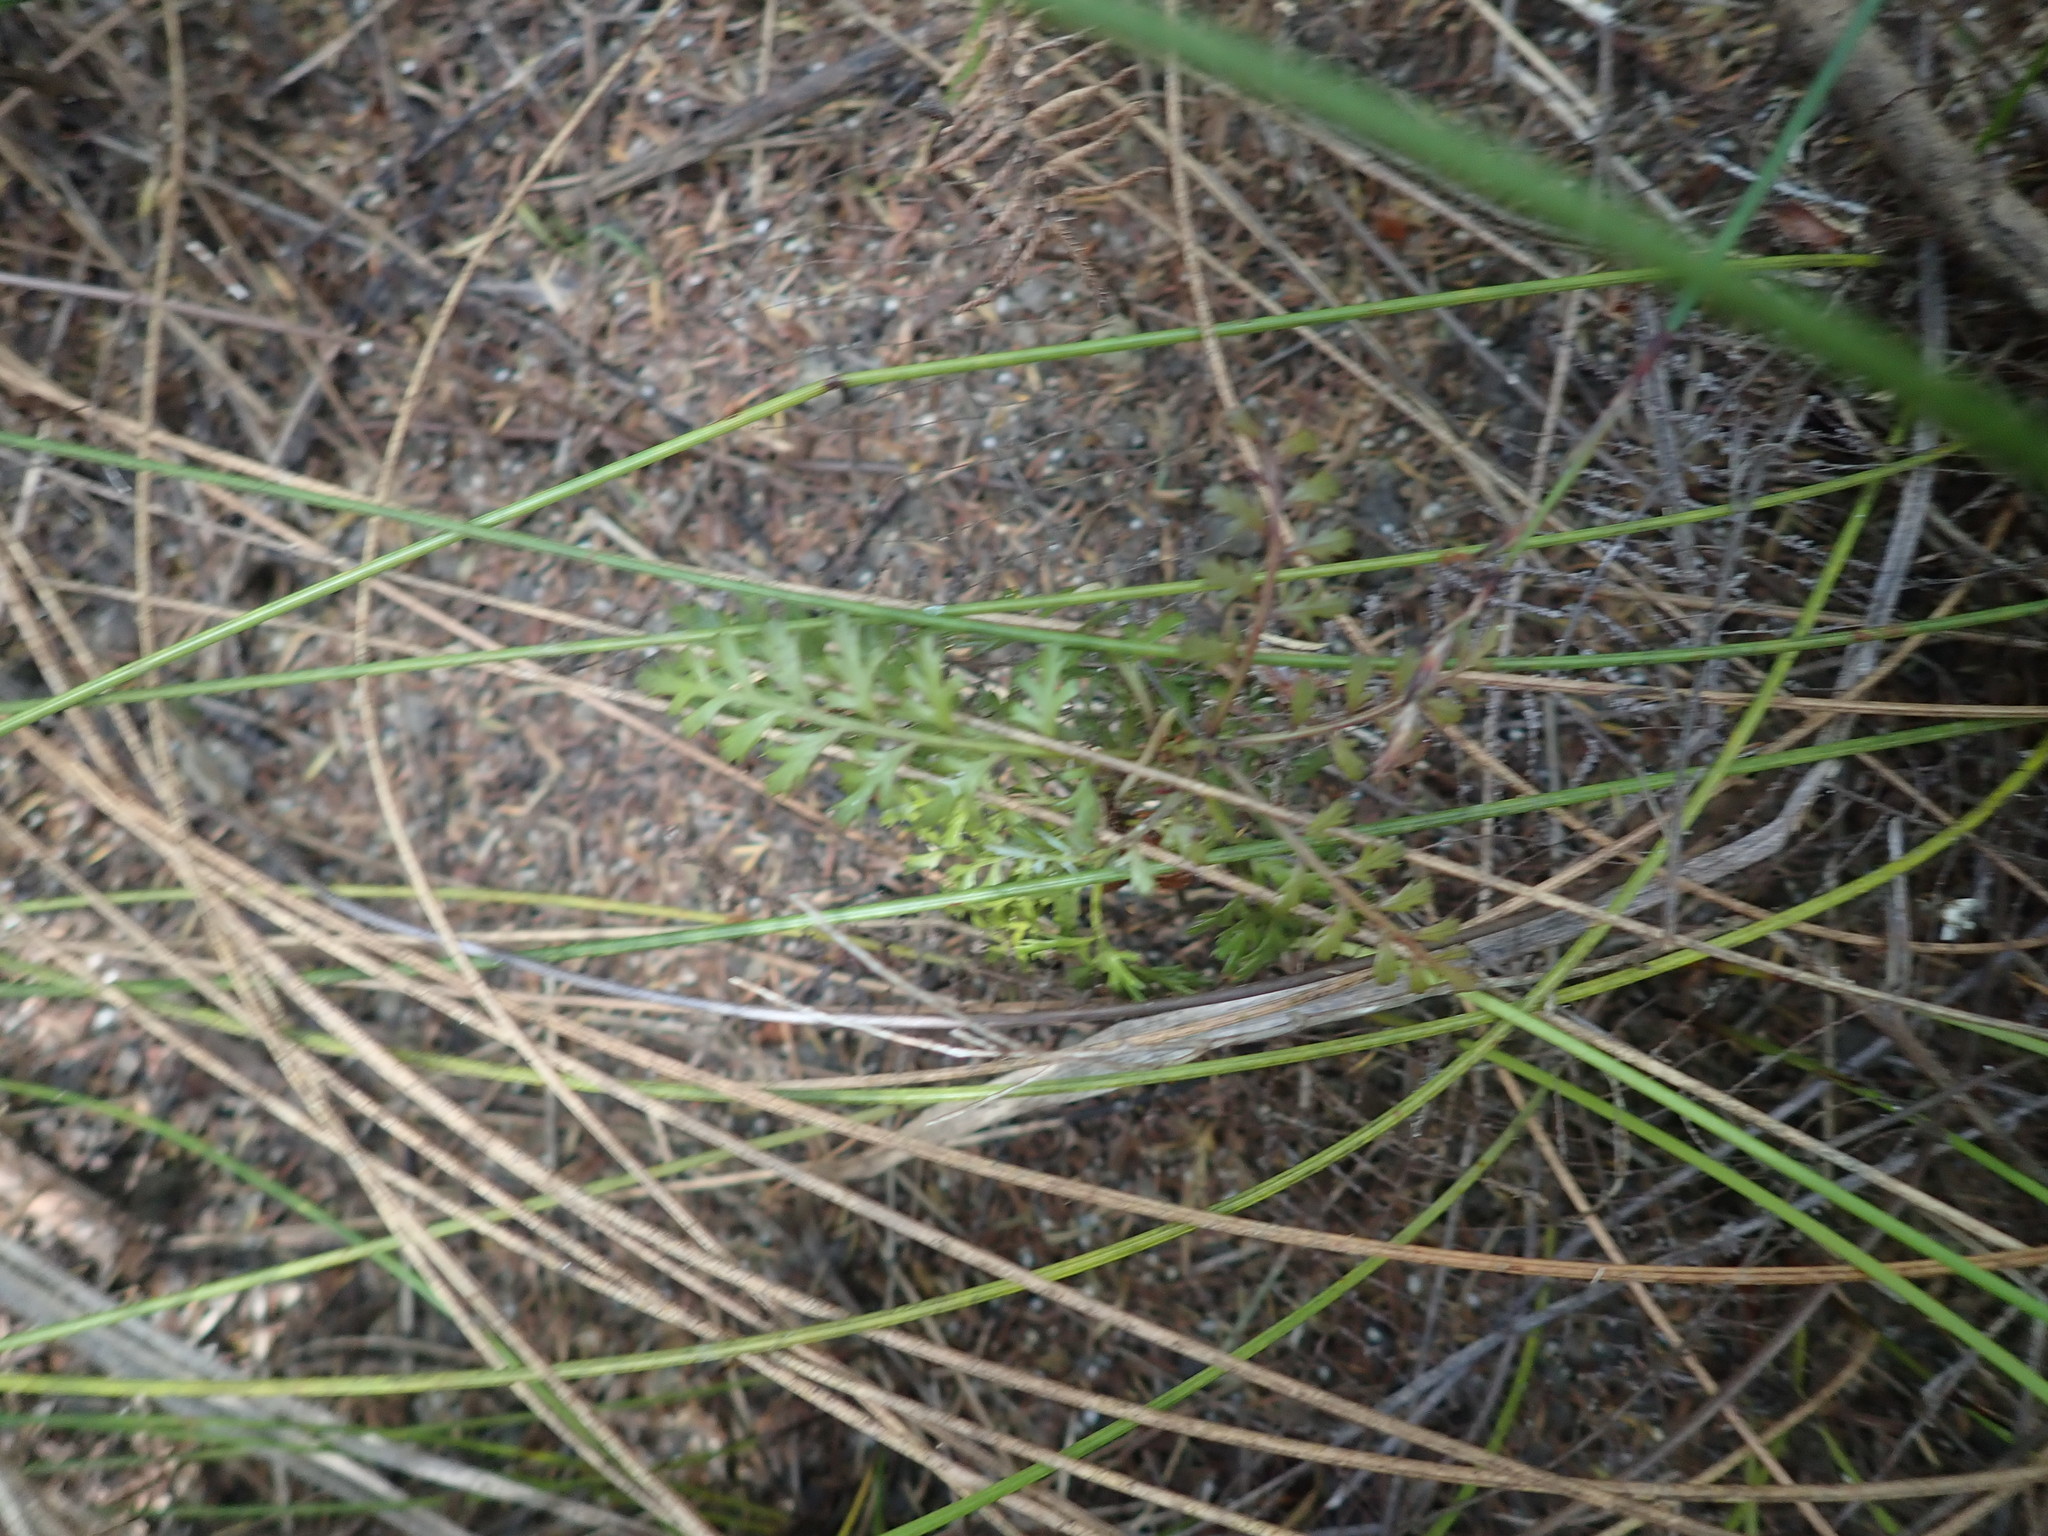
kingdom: Plantae
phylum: Tracheophyta
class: Pinopsida
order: Pinales
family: Phyllocladaceae
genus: Phyllocladus
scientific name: Phyllocladus trichomanoides
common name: Celery pine
